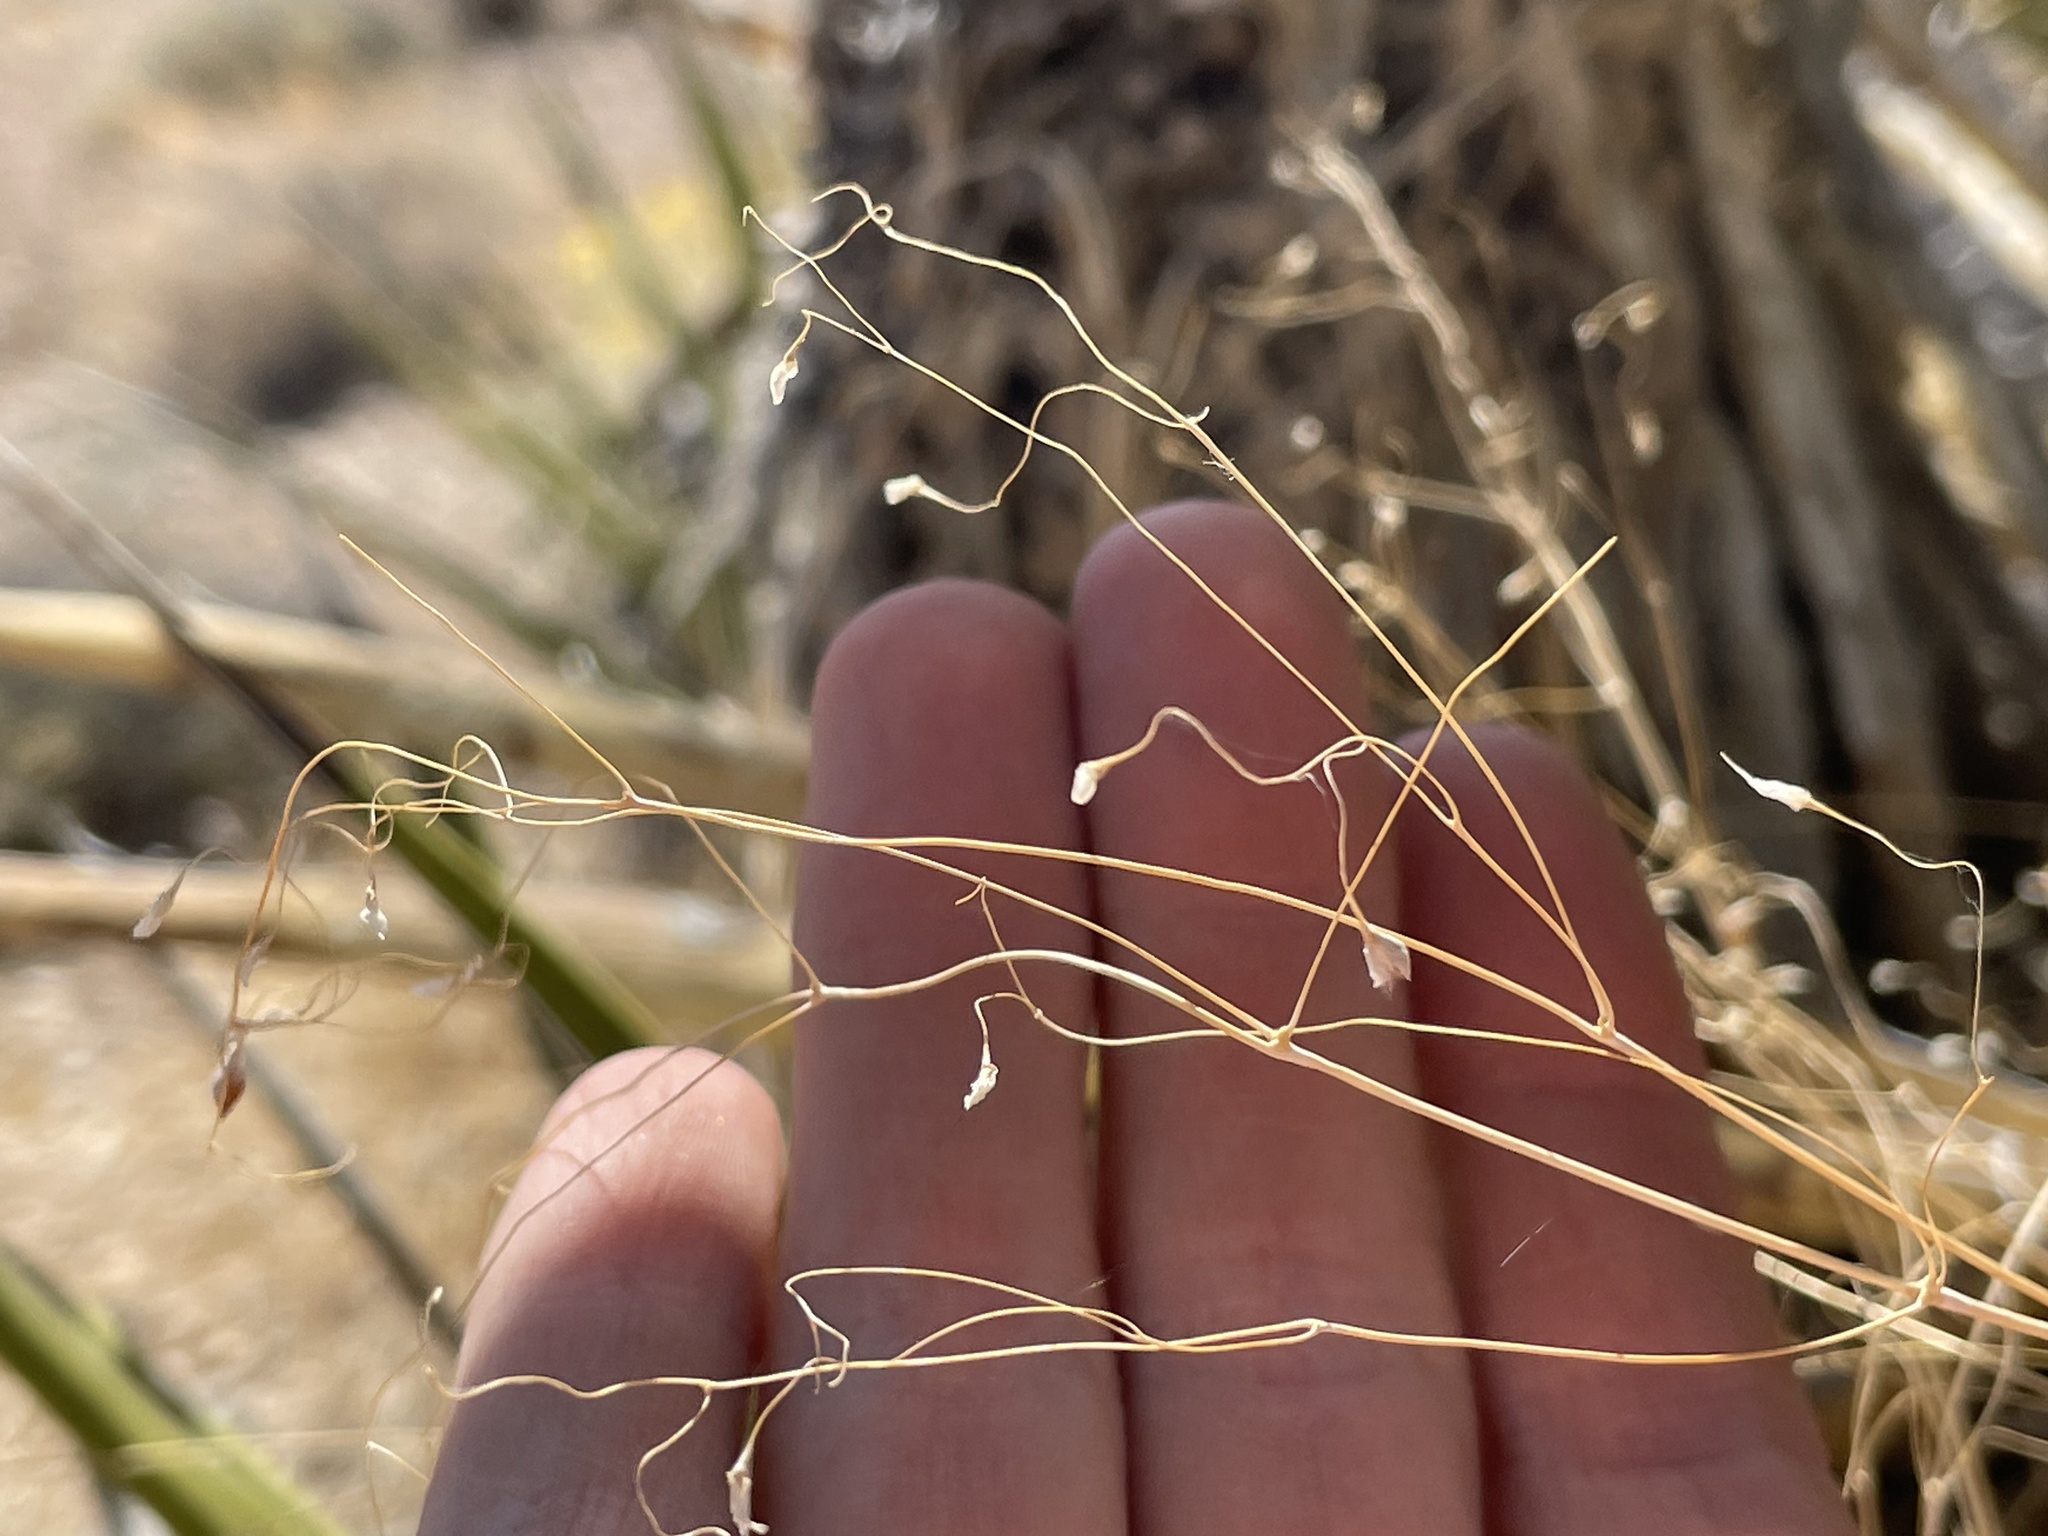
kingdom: Plantae
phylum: Tracheophyta
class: Liliopsida
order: Poales
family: Poaceae
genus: Eriocoma
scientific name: Eriocoma hymenoides
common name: Indian mountain ricegrass
